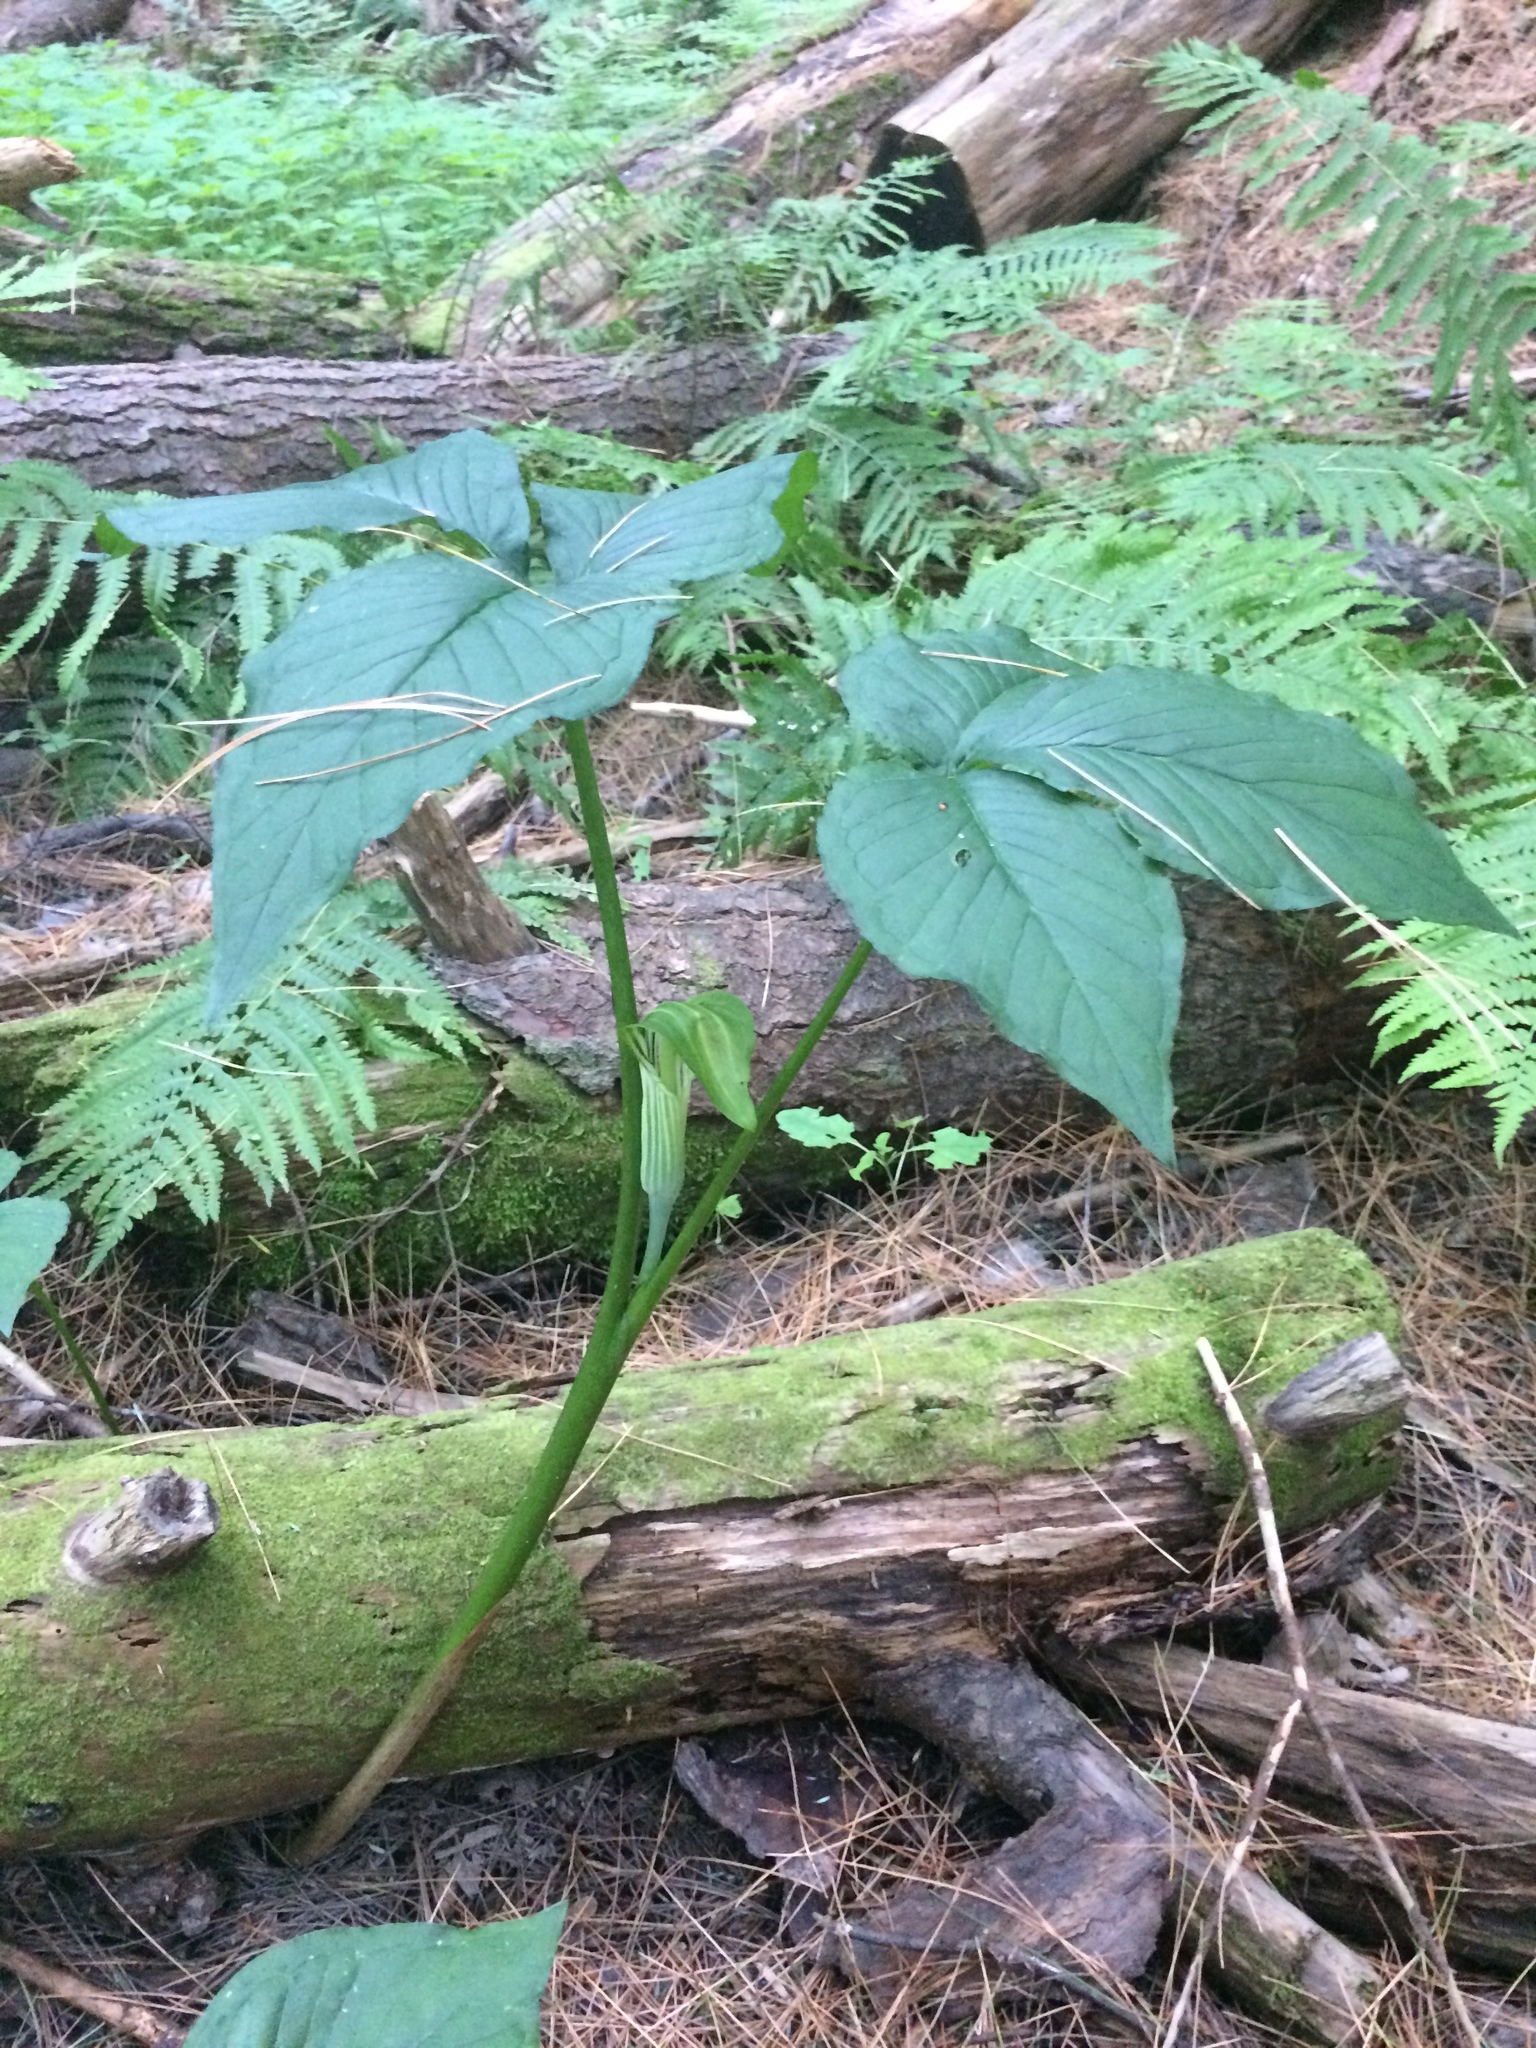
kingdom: Plantae
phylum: Tracheophyta
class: Liliopsida
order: Alismatales
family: Araceae
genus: Arisaema
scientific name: Arisaema stewardsonii
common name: Swamp jack-in-the-pulpit
